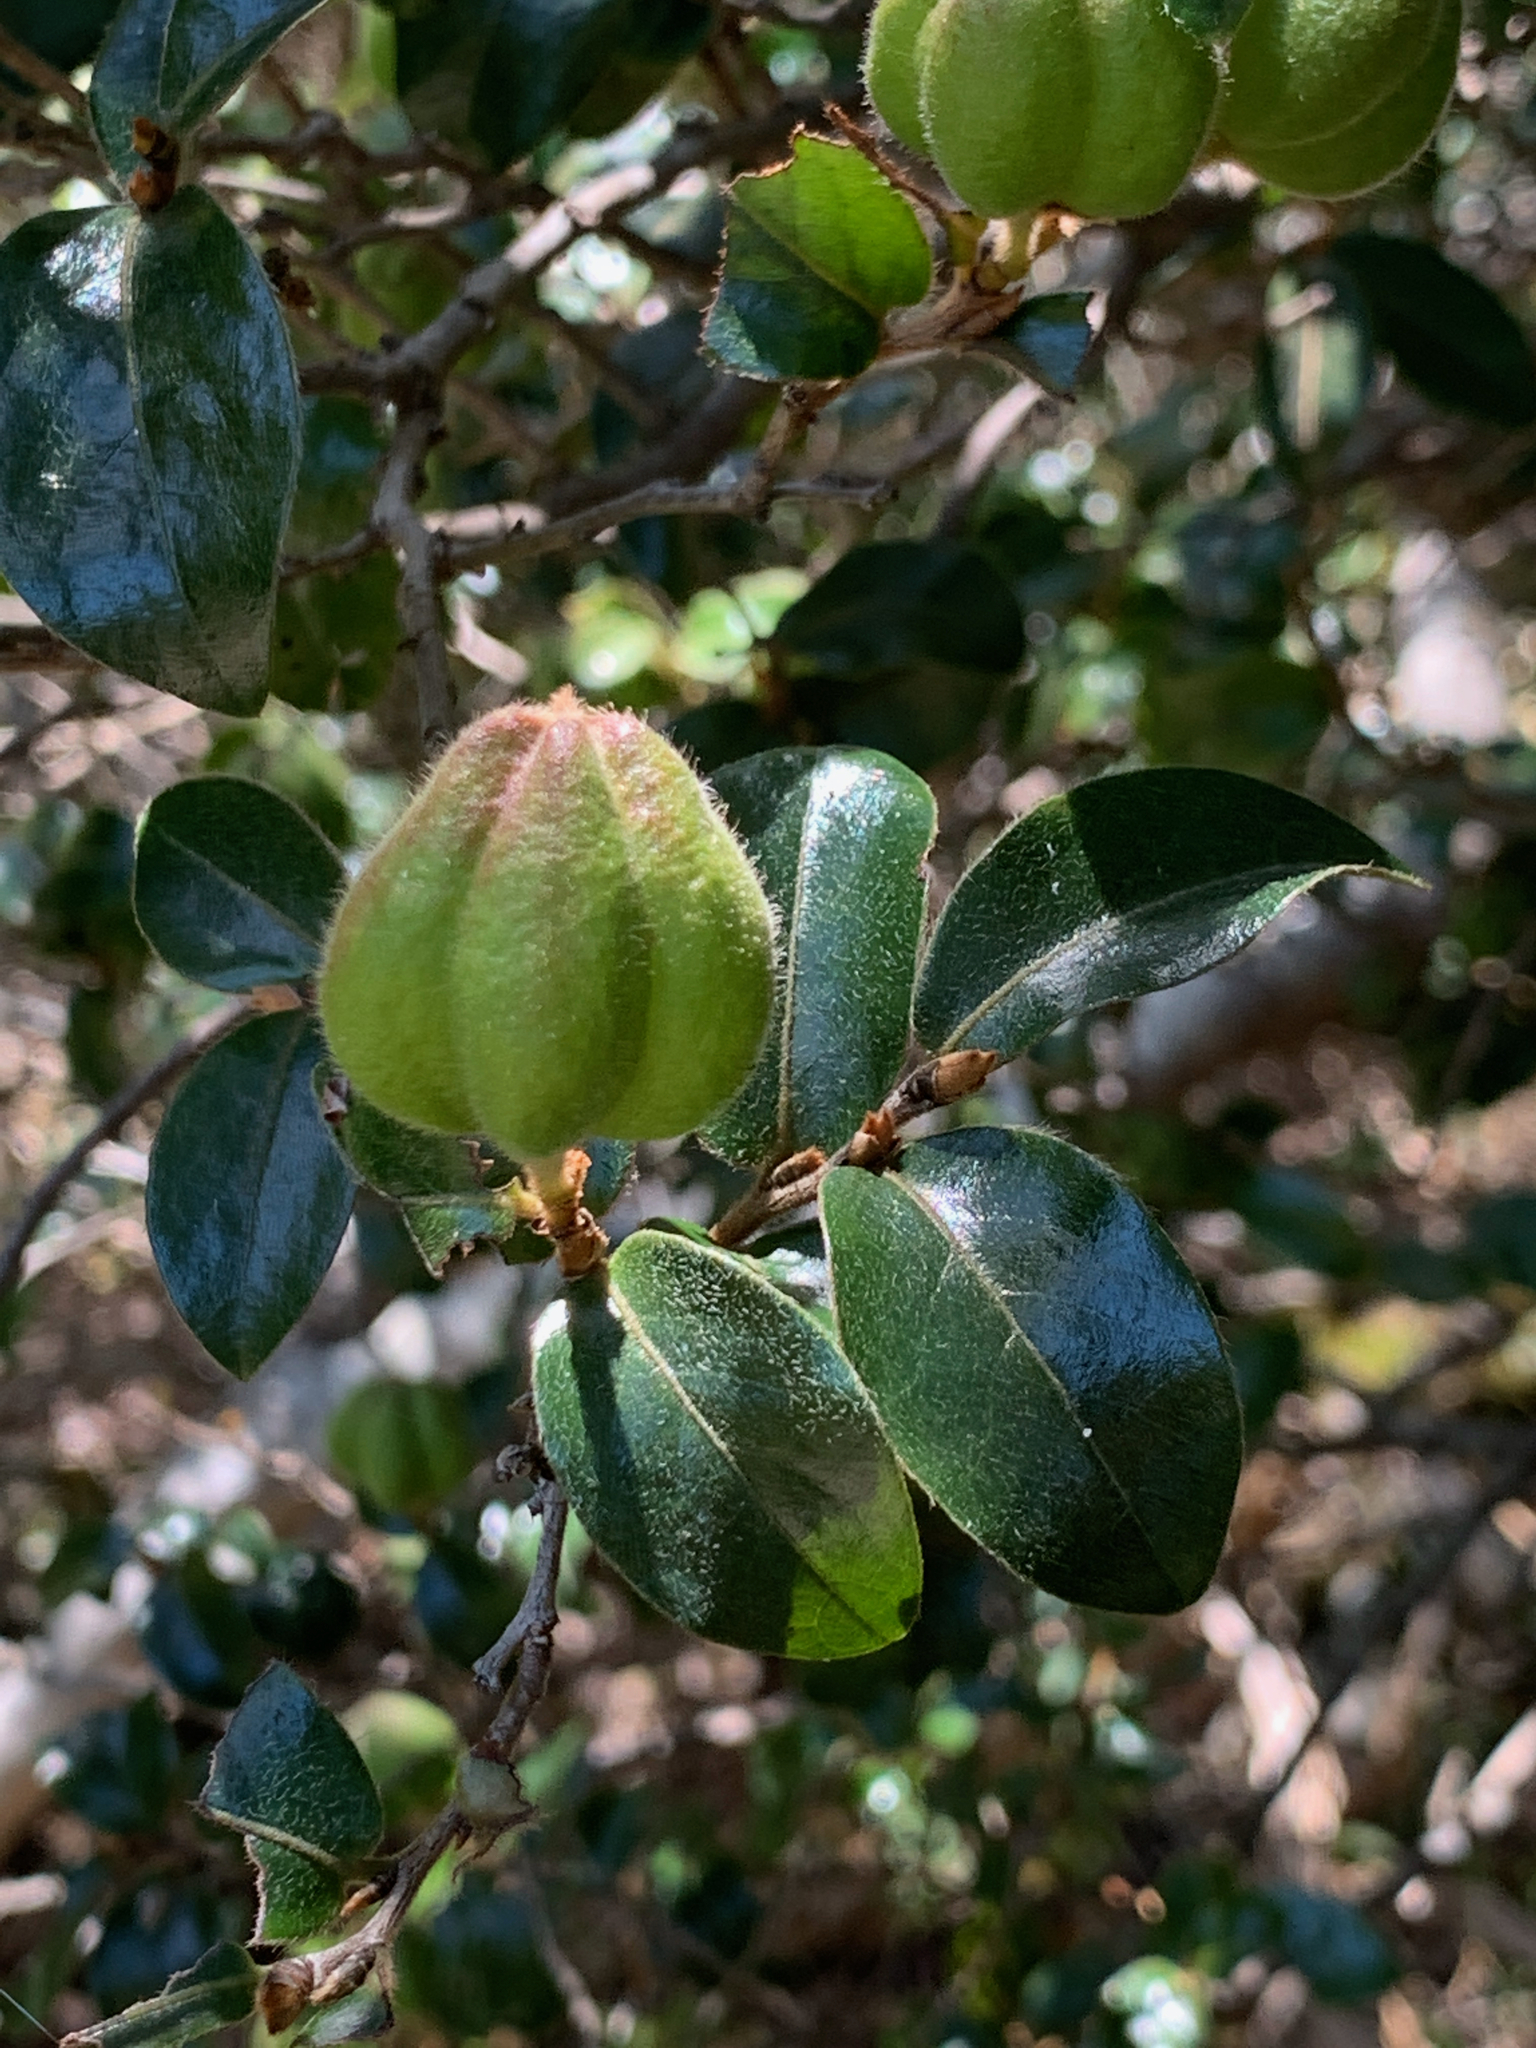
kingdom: Plantae
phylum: Tracheophyta
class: Magnoliopsida
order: Ericales
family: Ebenaceae
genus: Diospyros
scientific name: Diospyros whyteana
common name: Bladder-nut
